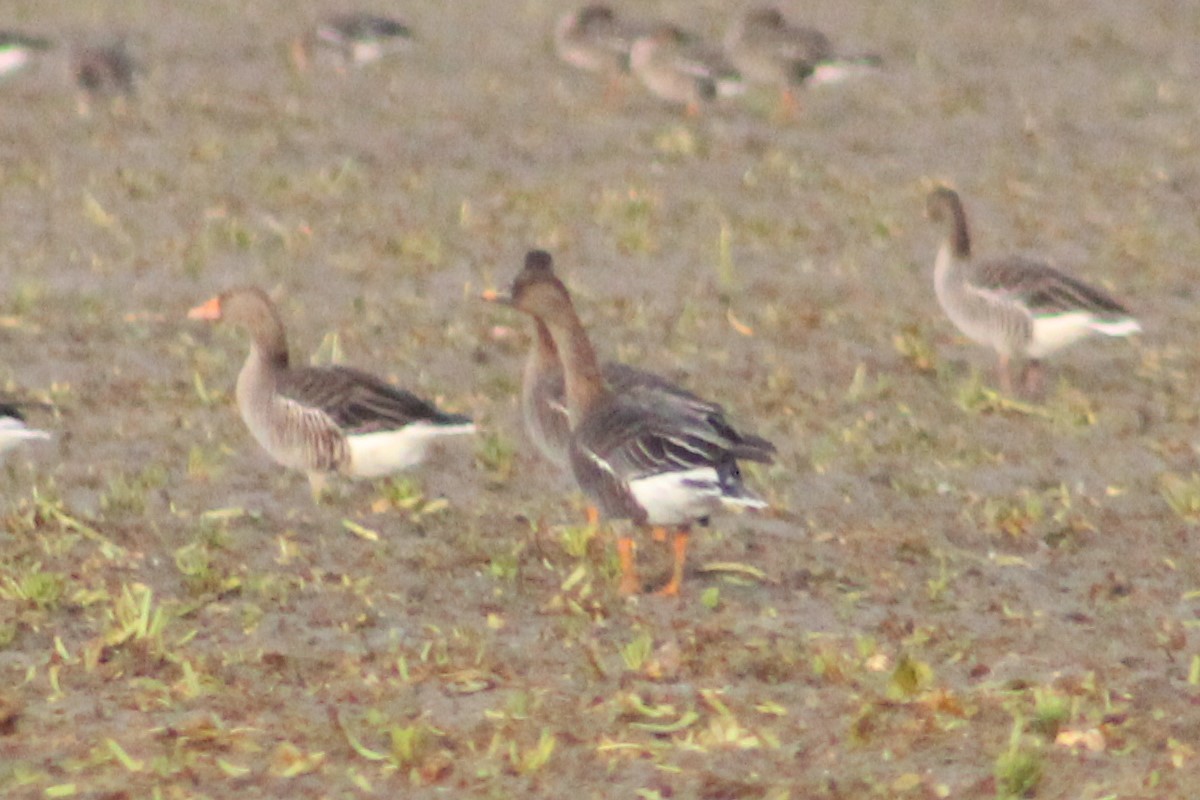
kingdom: Animalia
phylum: Chordata
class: Aves
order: Anseriformes
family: Anatidae
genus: Anser
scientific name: Anser serrirostris
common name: Tundra bean goose
